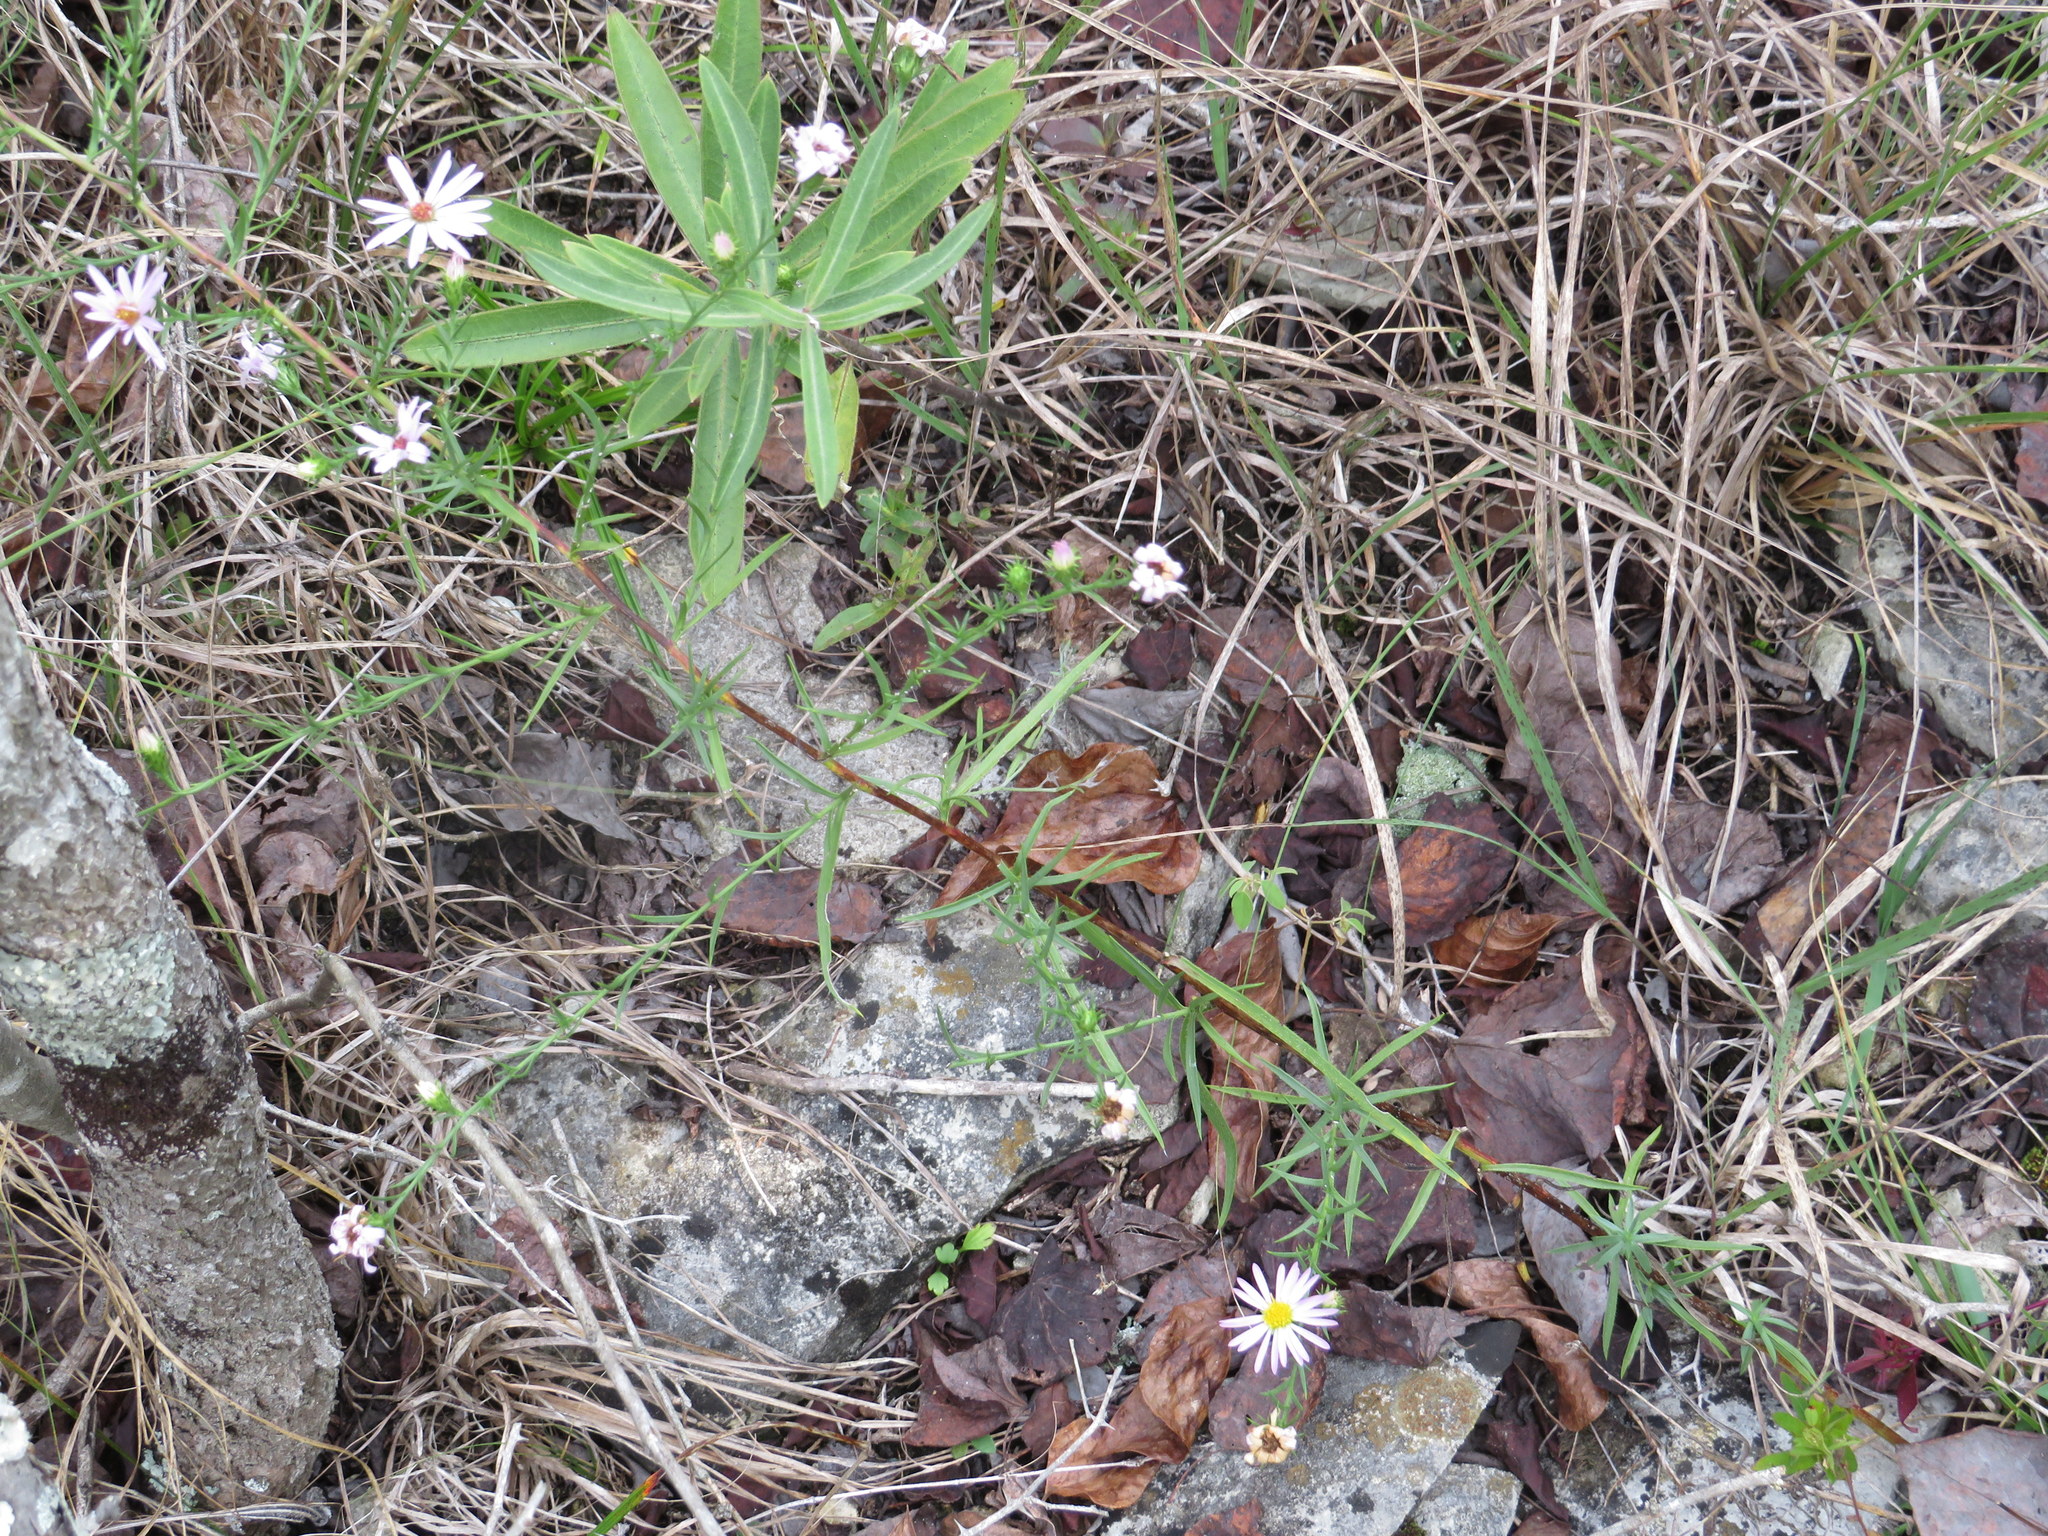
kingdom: Plantae
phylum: Tracheophyta
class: Magnoliopsida
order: Asterales
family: Asteraceae
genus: Symphyotrichum
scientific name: Symphyotrichum kentuckiense
